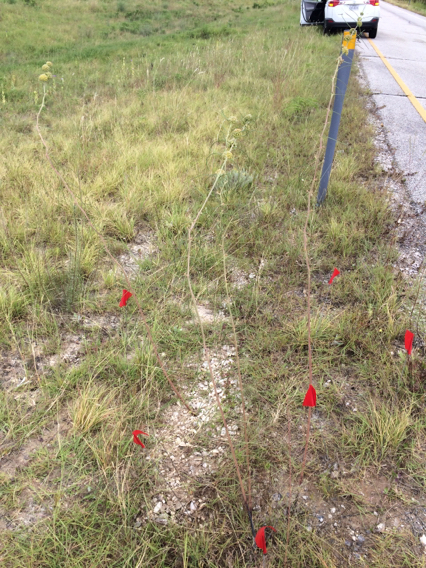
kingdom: Plantae
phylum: Tracheophyta
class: Magnoliopsida
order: Gentianales
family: Apocynaceae
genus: Asclepias
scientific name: Asclepias engelmanniana
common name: Engelmann's milkweed
